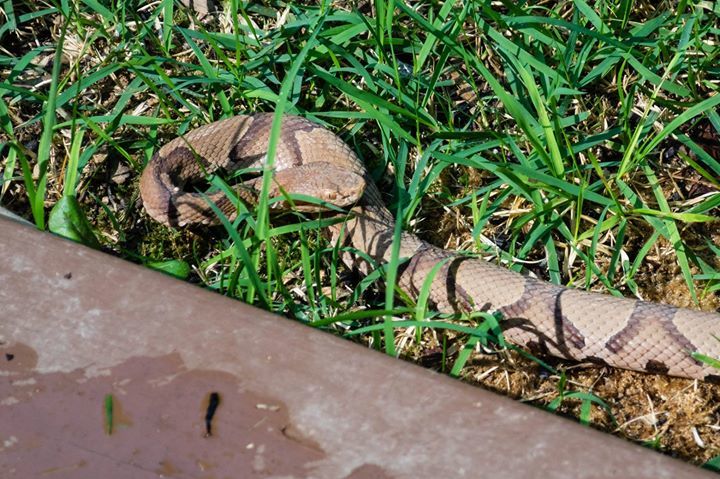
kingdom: Animalia
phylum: Chordata
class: Squamata
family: Viperidae
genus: Agkistrodon
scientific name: Agkistrodon contortrix
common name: Northern copperhead
